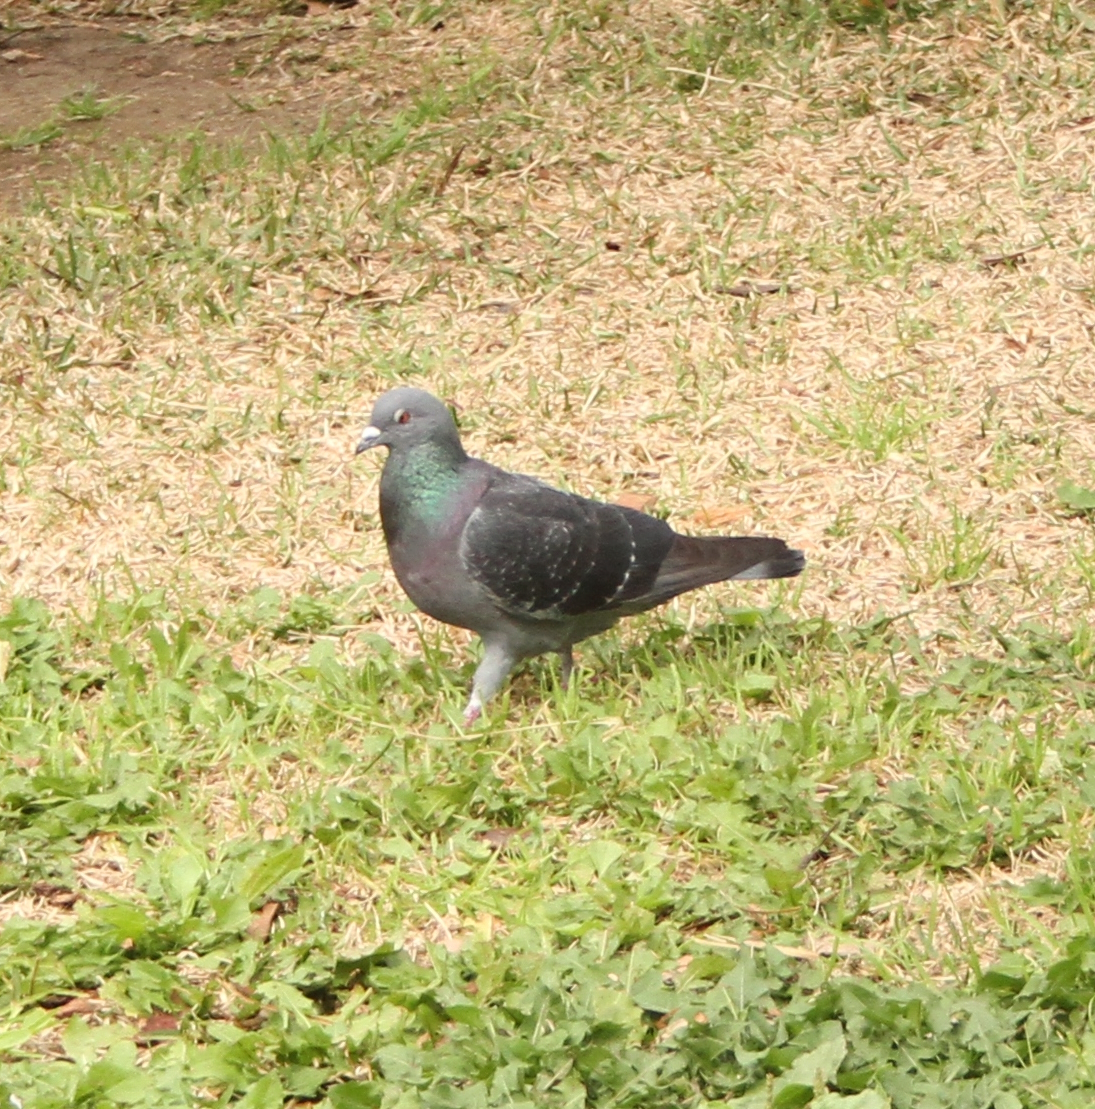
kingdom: Animalia
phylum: Chordata
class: Aves
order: Columbiformes
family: Columbidae
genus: Columba
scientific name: Columba livia
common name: Rock pigeon
